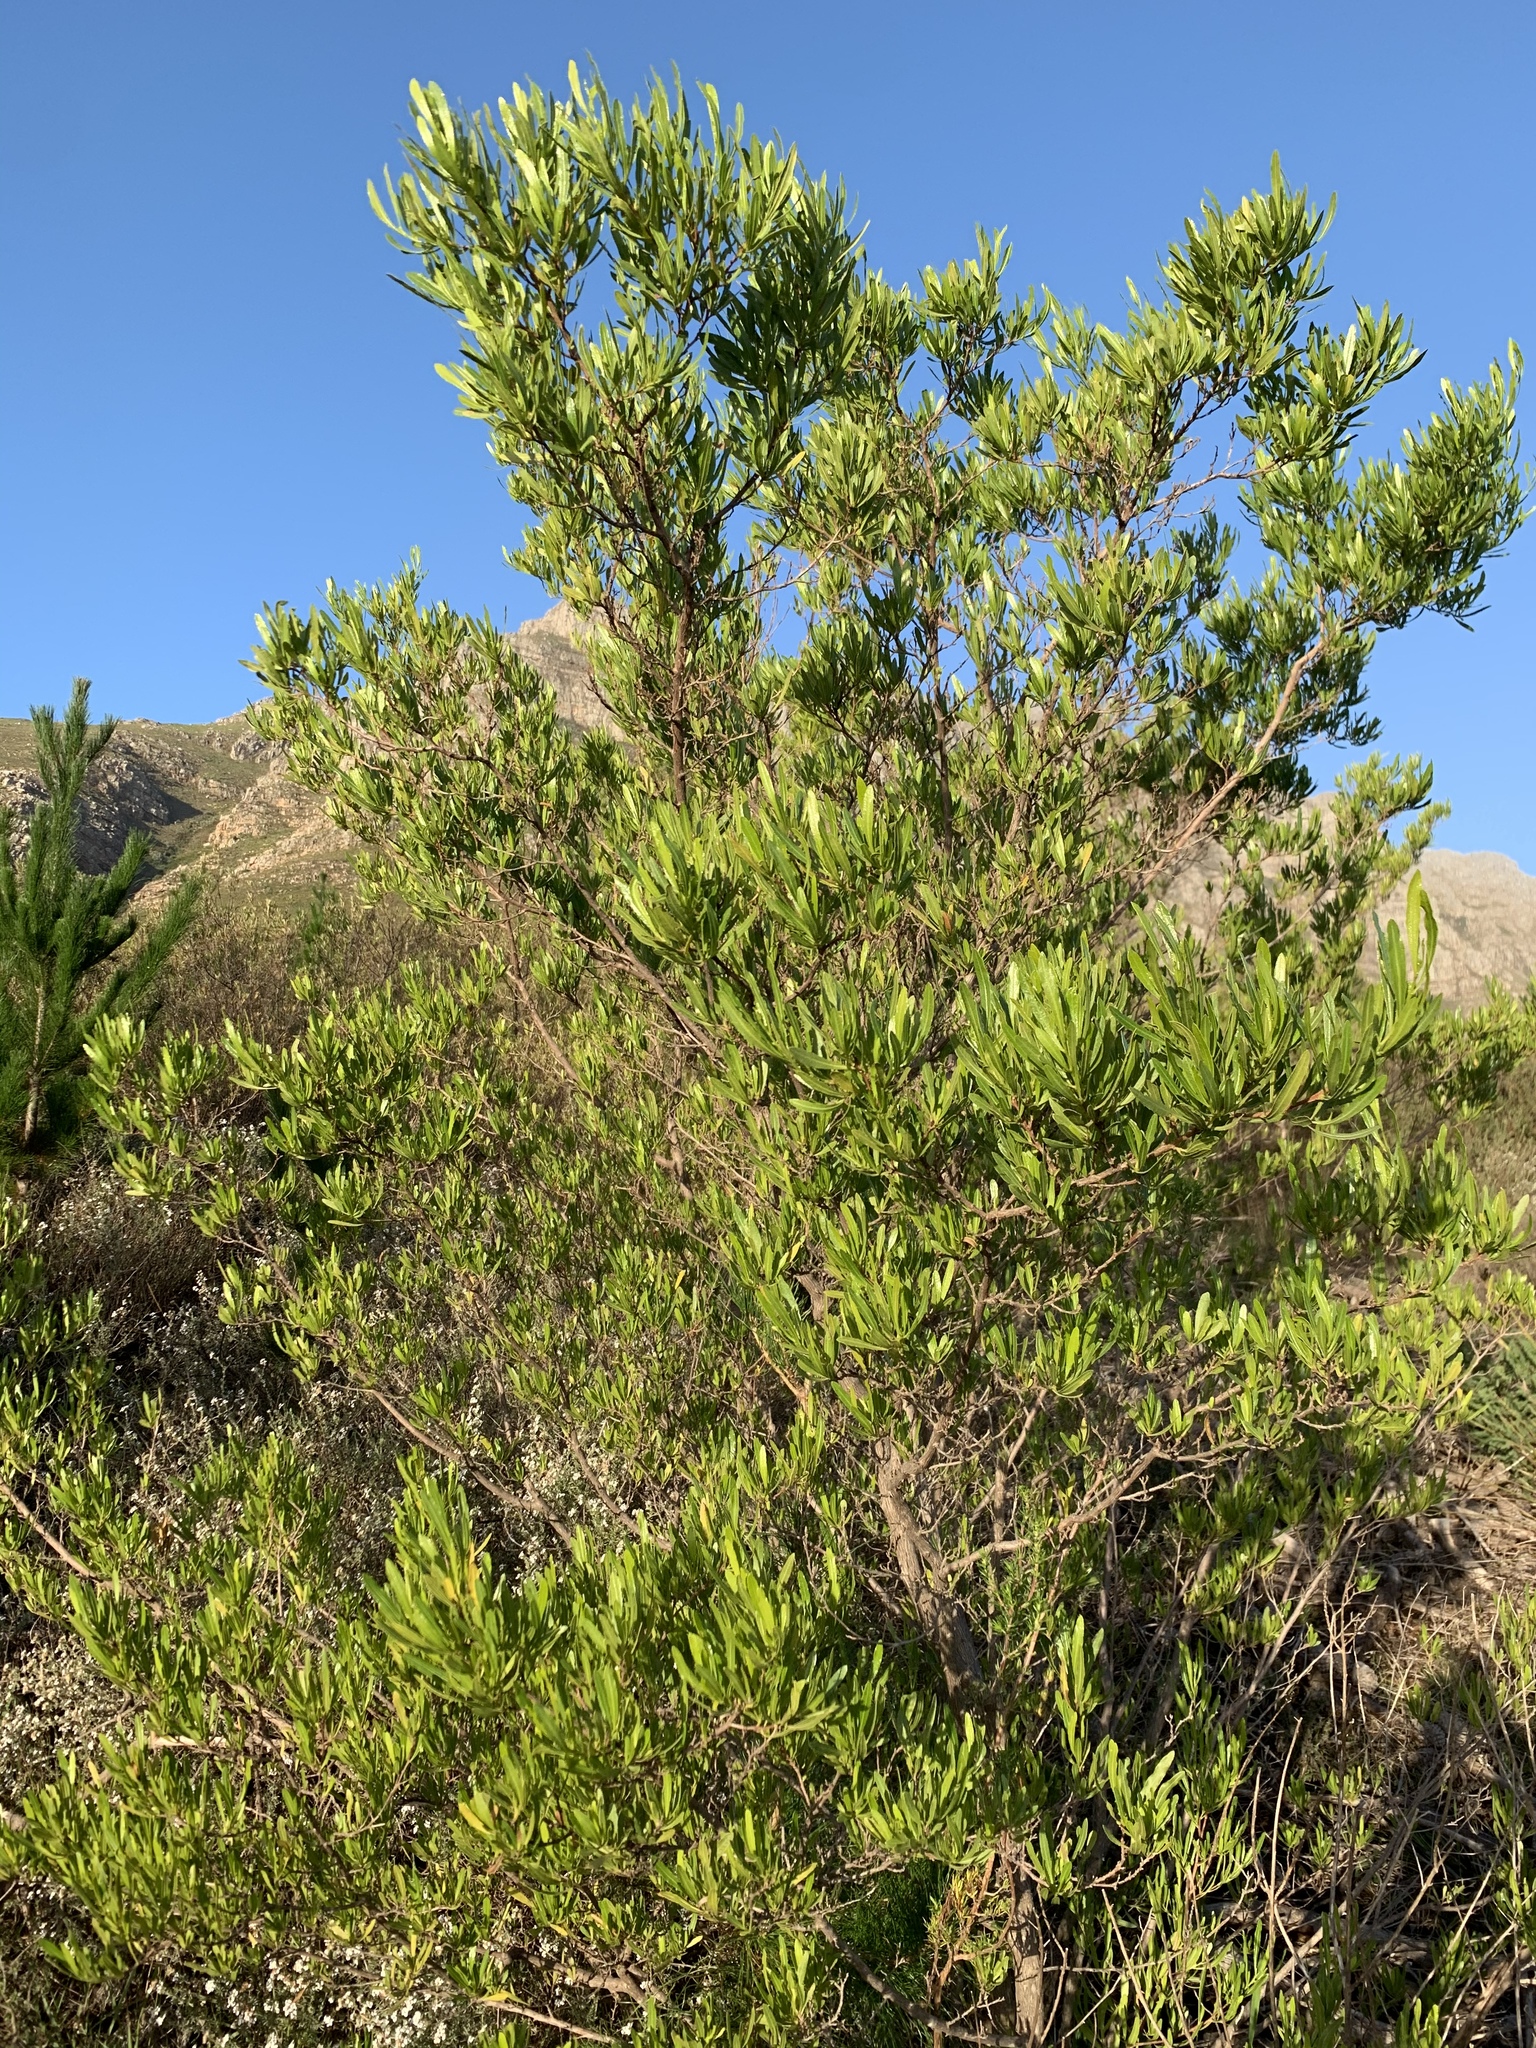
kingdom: Plantae
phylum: Tracheophyta
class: Magnoliopsida
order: Sapindales
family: Sapindaceae
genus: Dodonaea
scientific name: Dodonaea viscosa
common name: Hopbush
